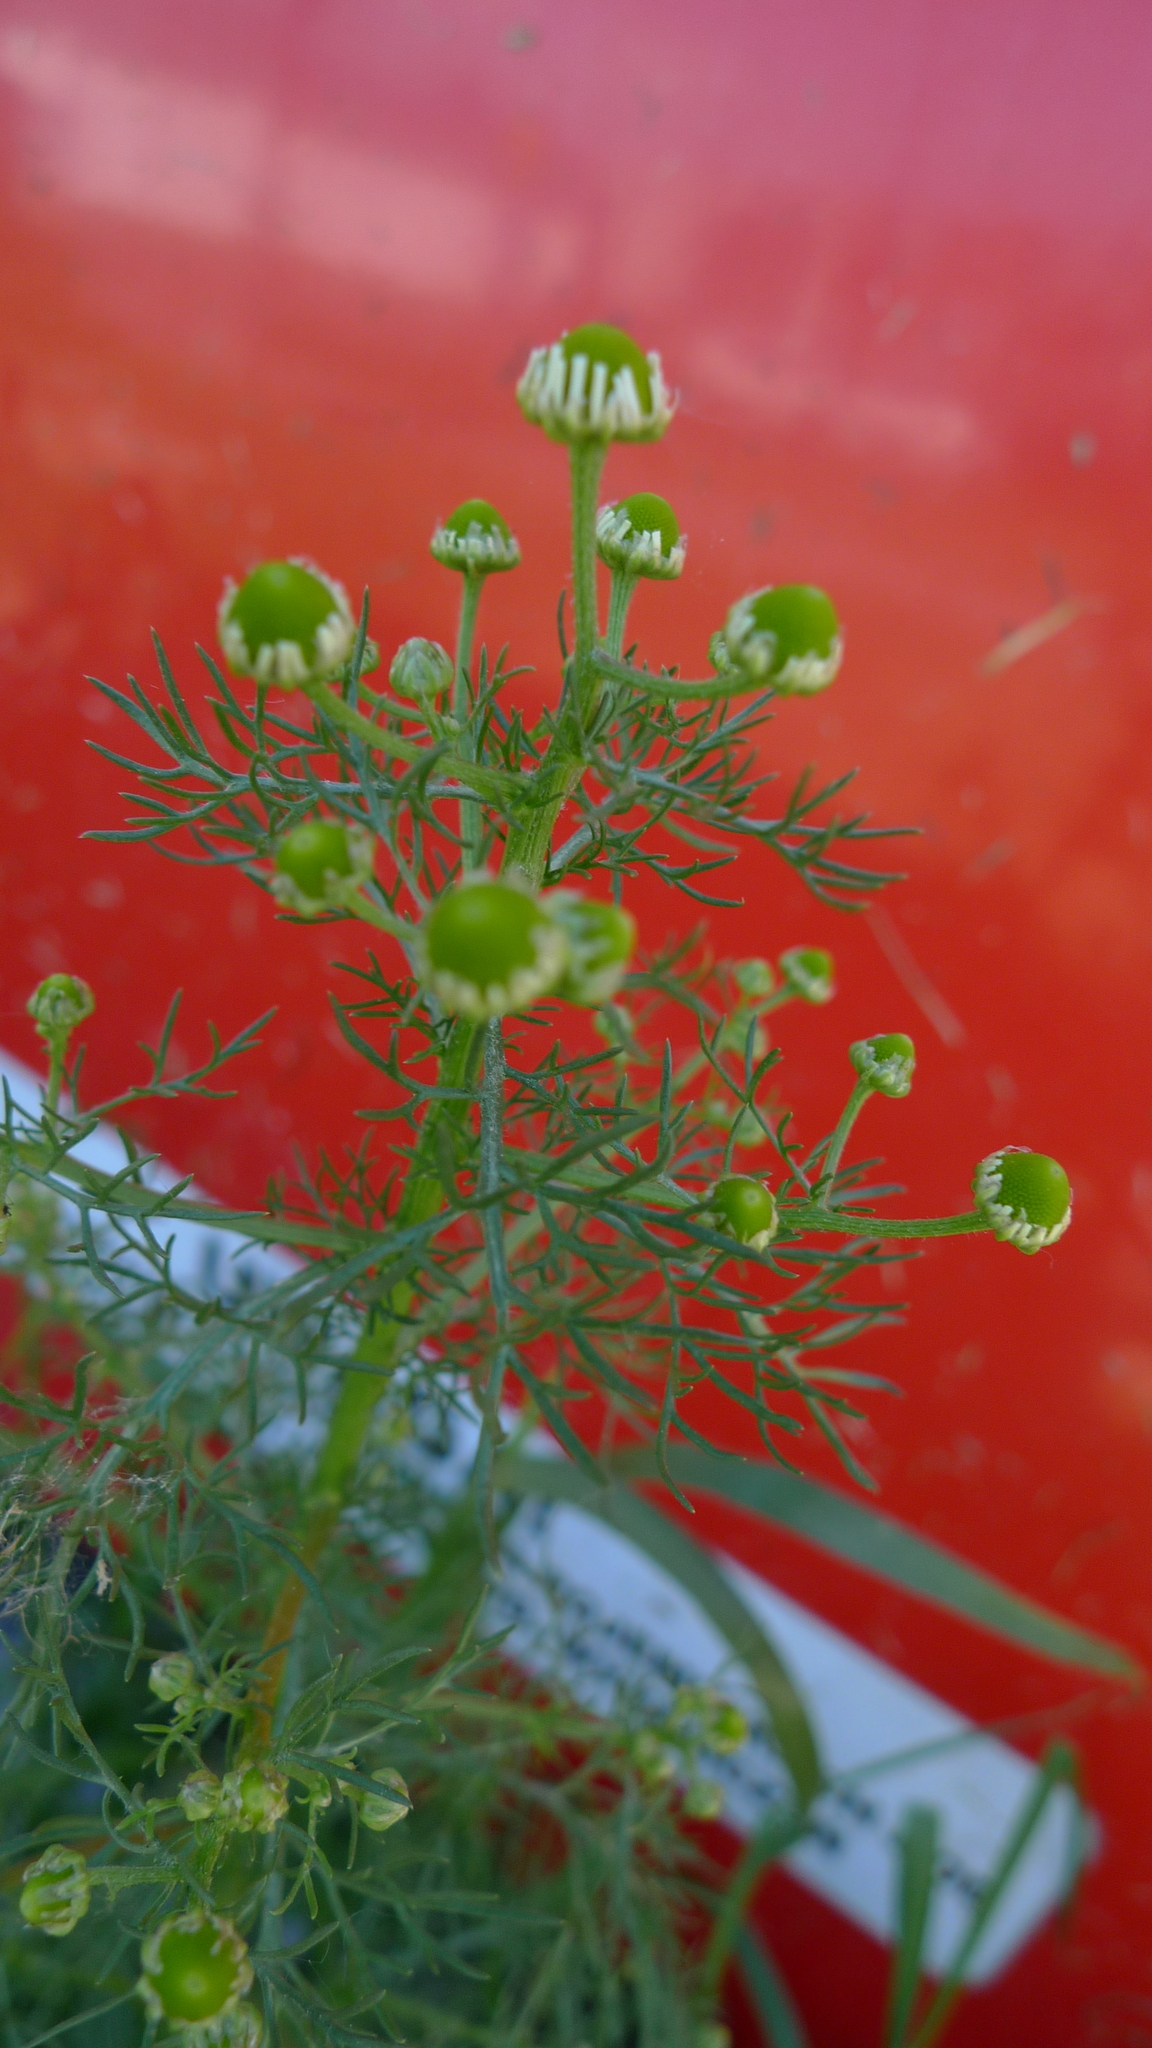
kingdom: Plantae
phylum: Tracheophyta
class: Magnoliopsida
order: Asterales
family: Asteraceae
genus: Matricaria
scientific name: Matricaria discoidea
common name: Disc mayweed
